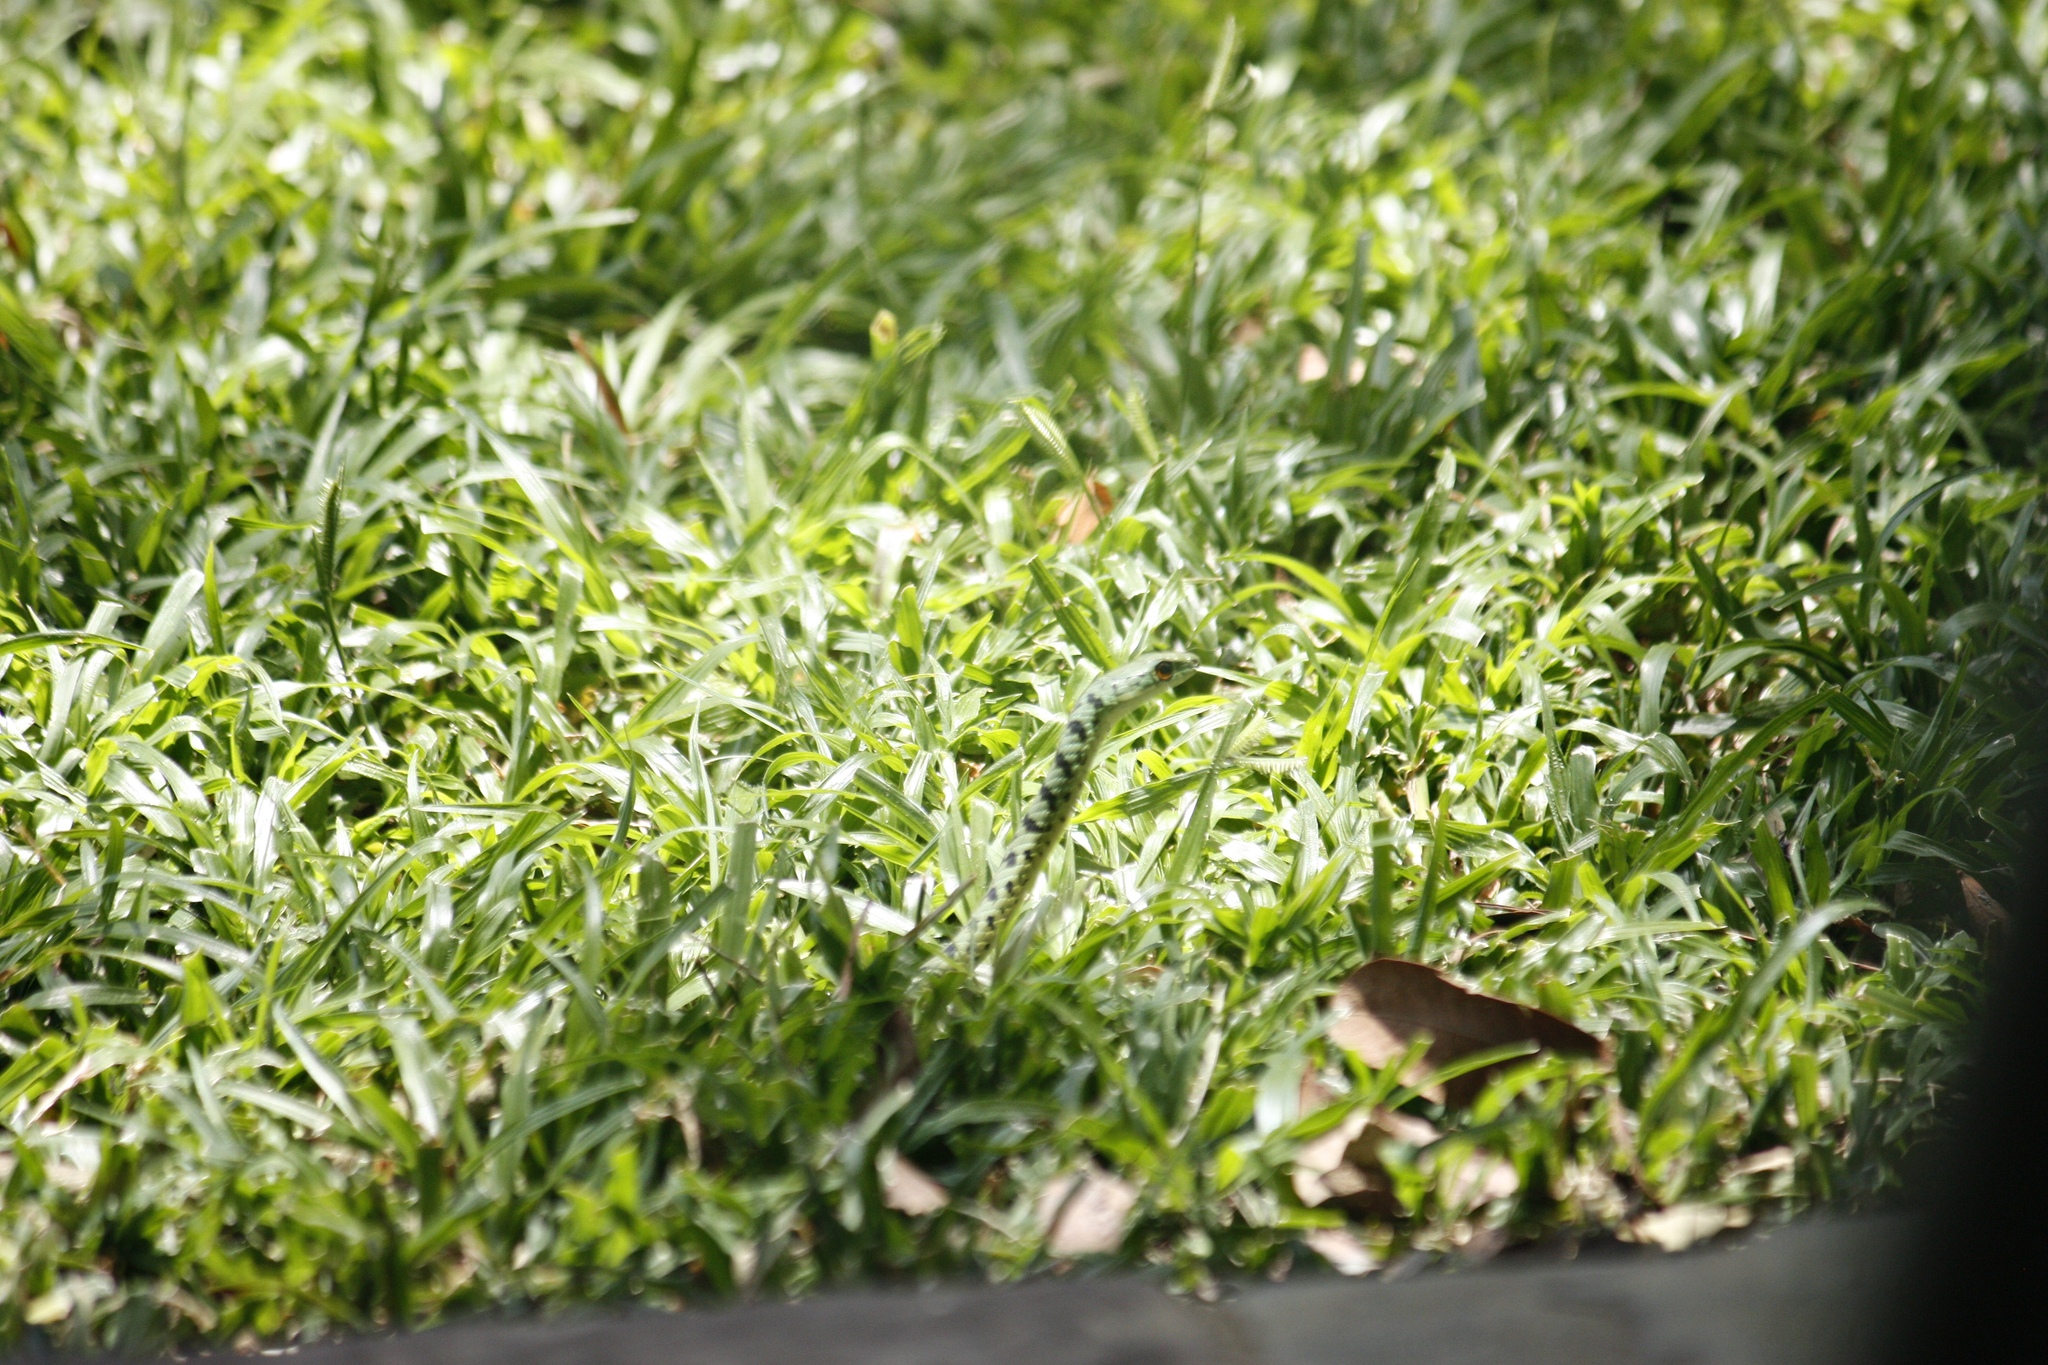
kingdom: Animalia
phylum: Chordata
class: Squamata
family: Colubridae
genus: Philothamnus
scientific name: Philothamnus semivariegatus
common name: Spotted bush snake
